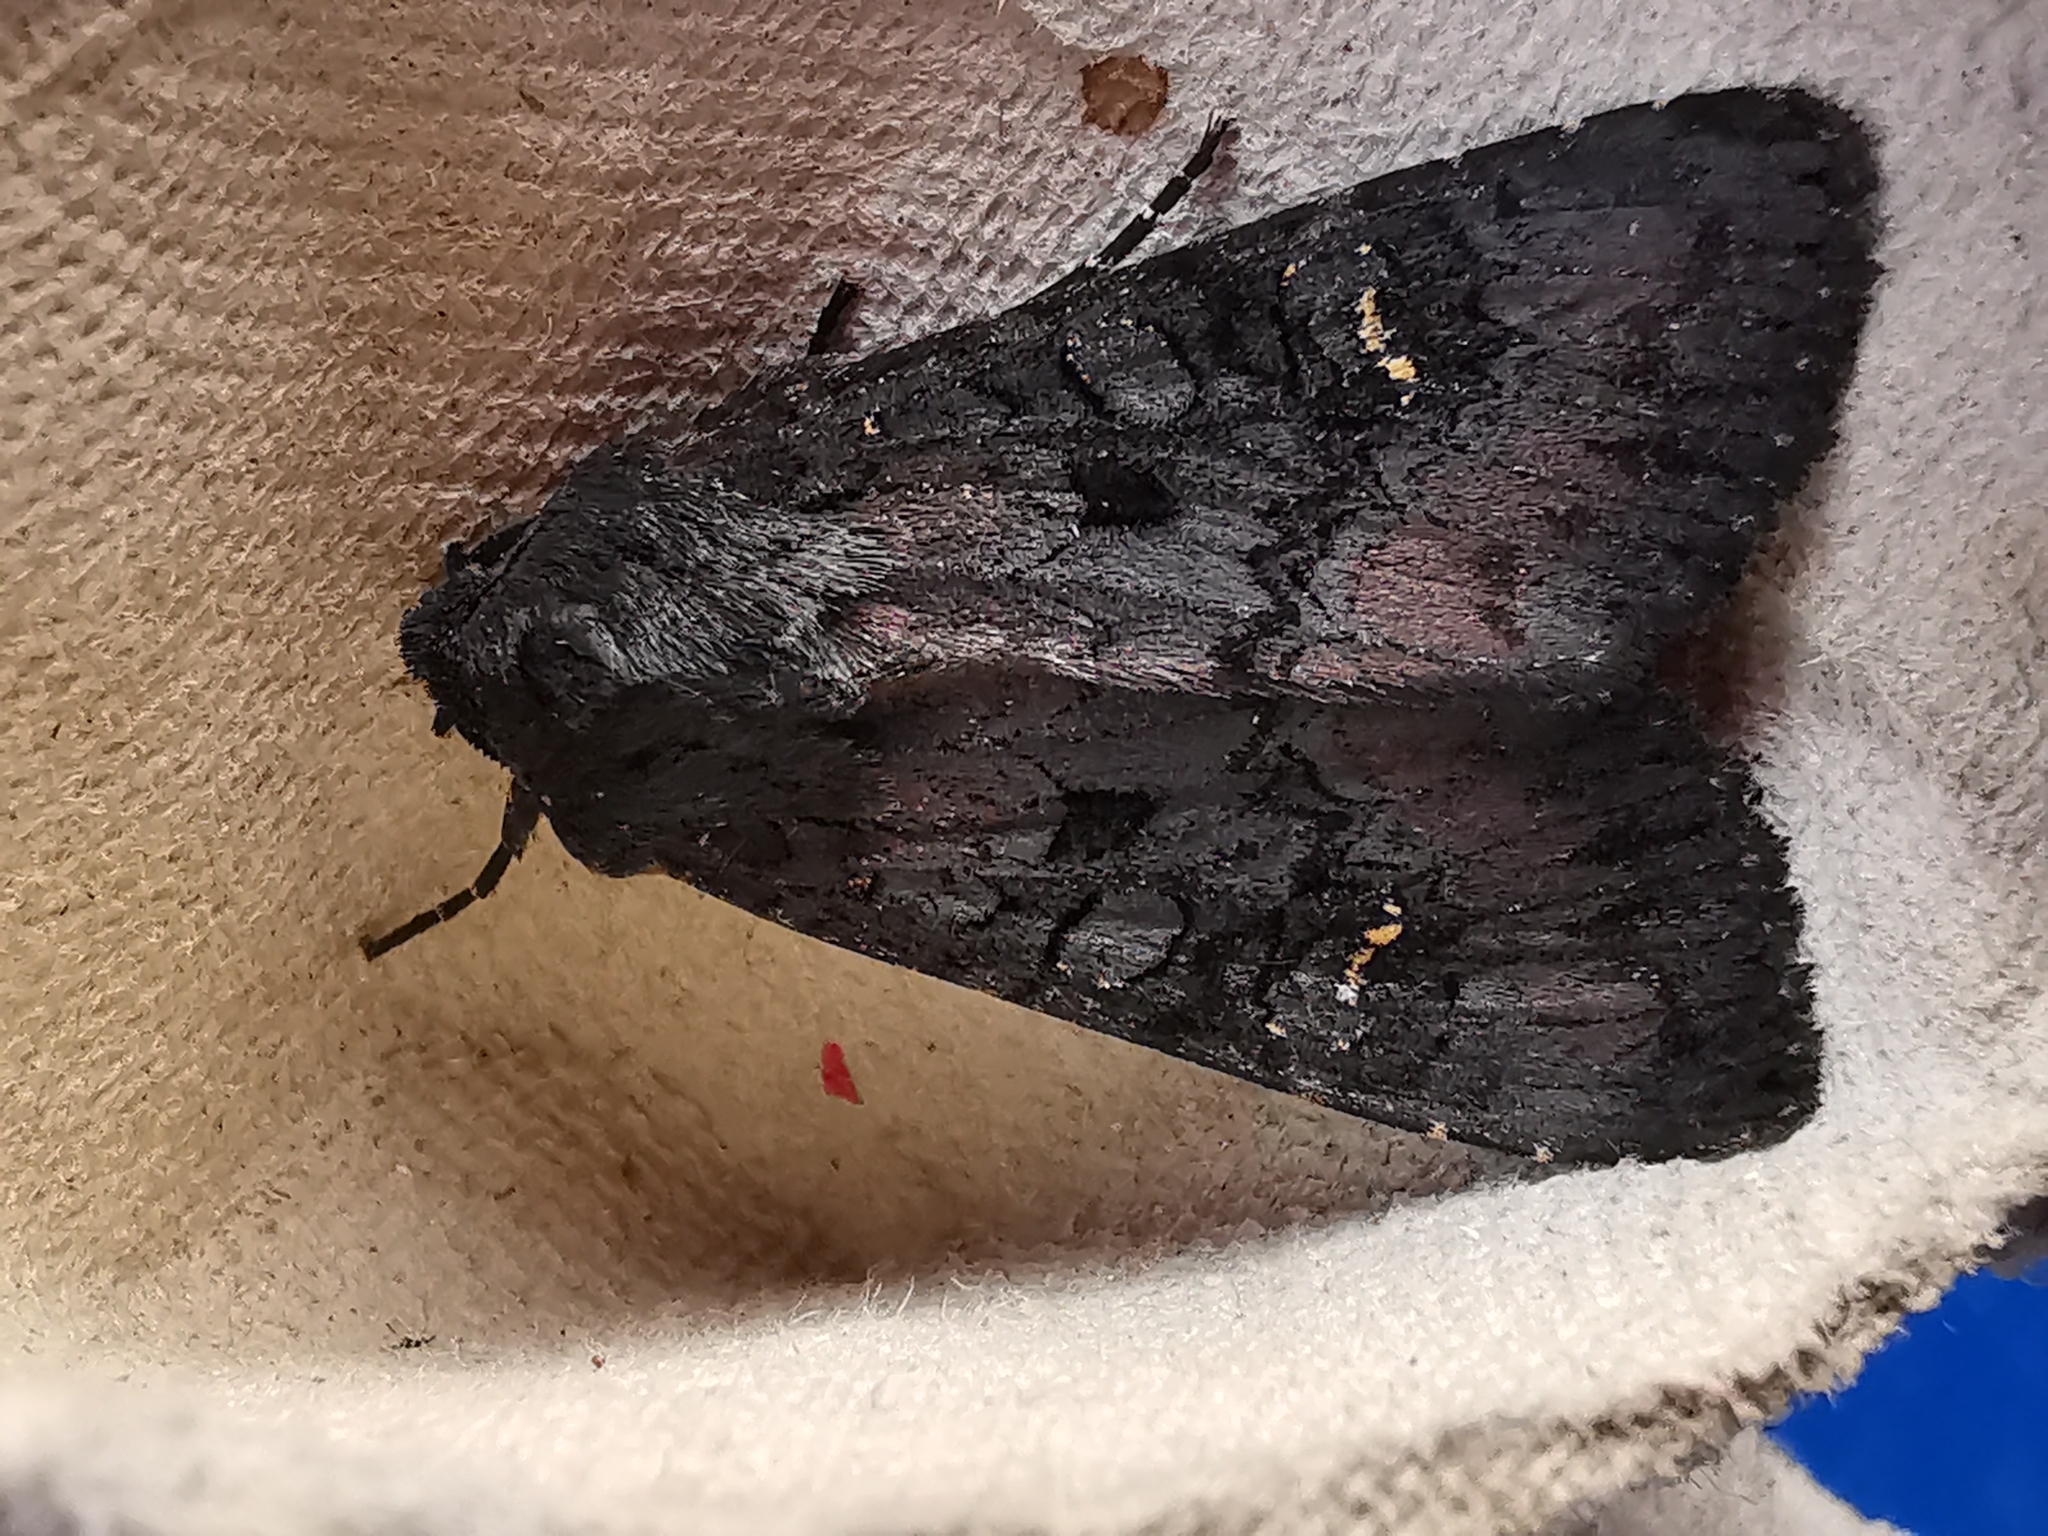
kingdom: Animalia
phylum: Arthropoda
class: Insecta
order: Lepidoptera
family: Noctuidae
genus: Aporophyla
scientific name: Aporophyla nigra
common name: Black rustic
